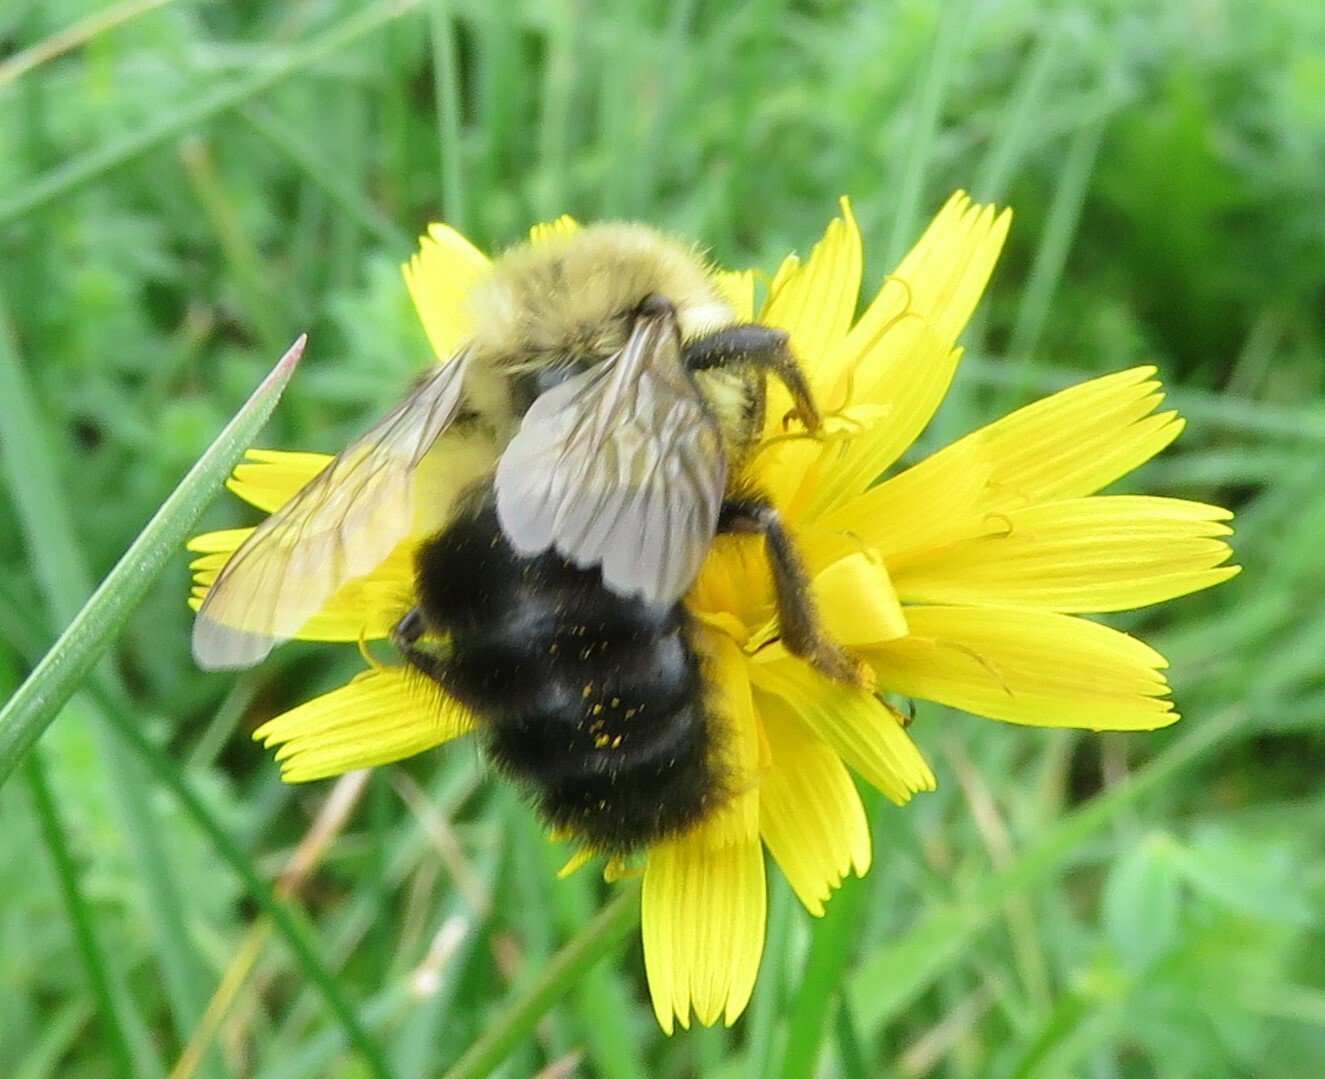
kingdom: Animalia
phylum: Arthropoda
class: Insecta
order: Hymenoptera
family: Apidae
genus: Bombus
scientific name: Bombus impatiens
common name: Common eastern bumble bee
